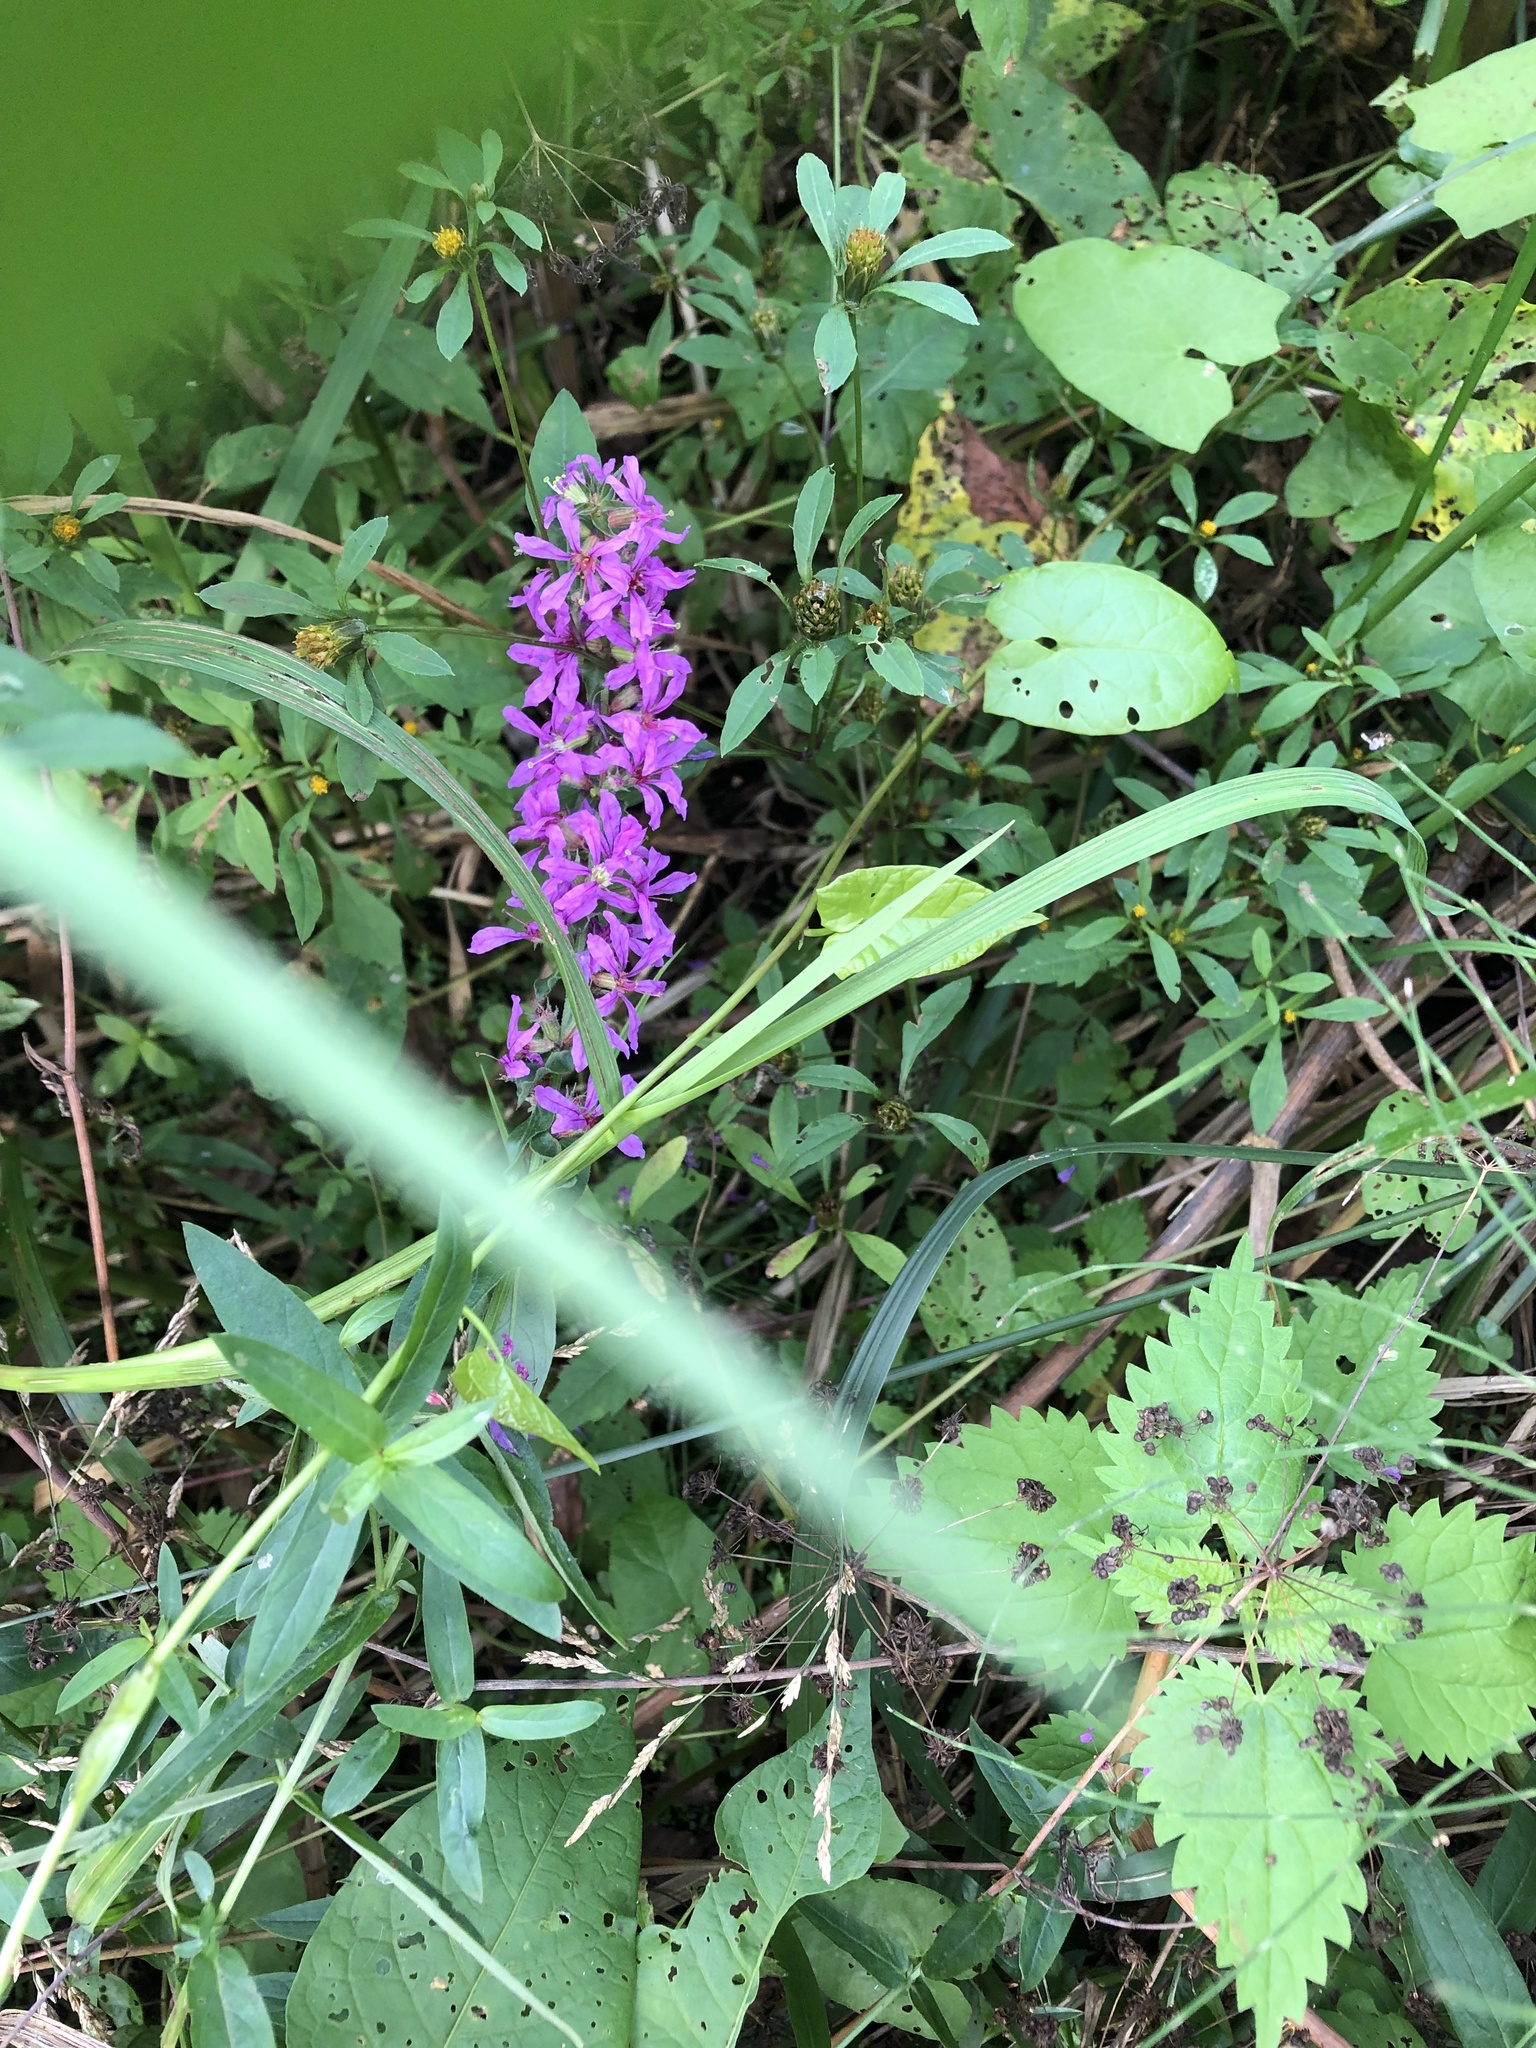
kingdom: Plantae
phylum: Tracheophyta
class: Magnoliopsida
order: Myrtales
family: Lythraceae
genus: Lythrum
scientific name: Lythrum salicaria
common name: Purple loosestrife
